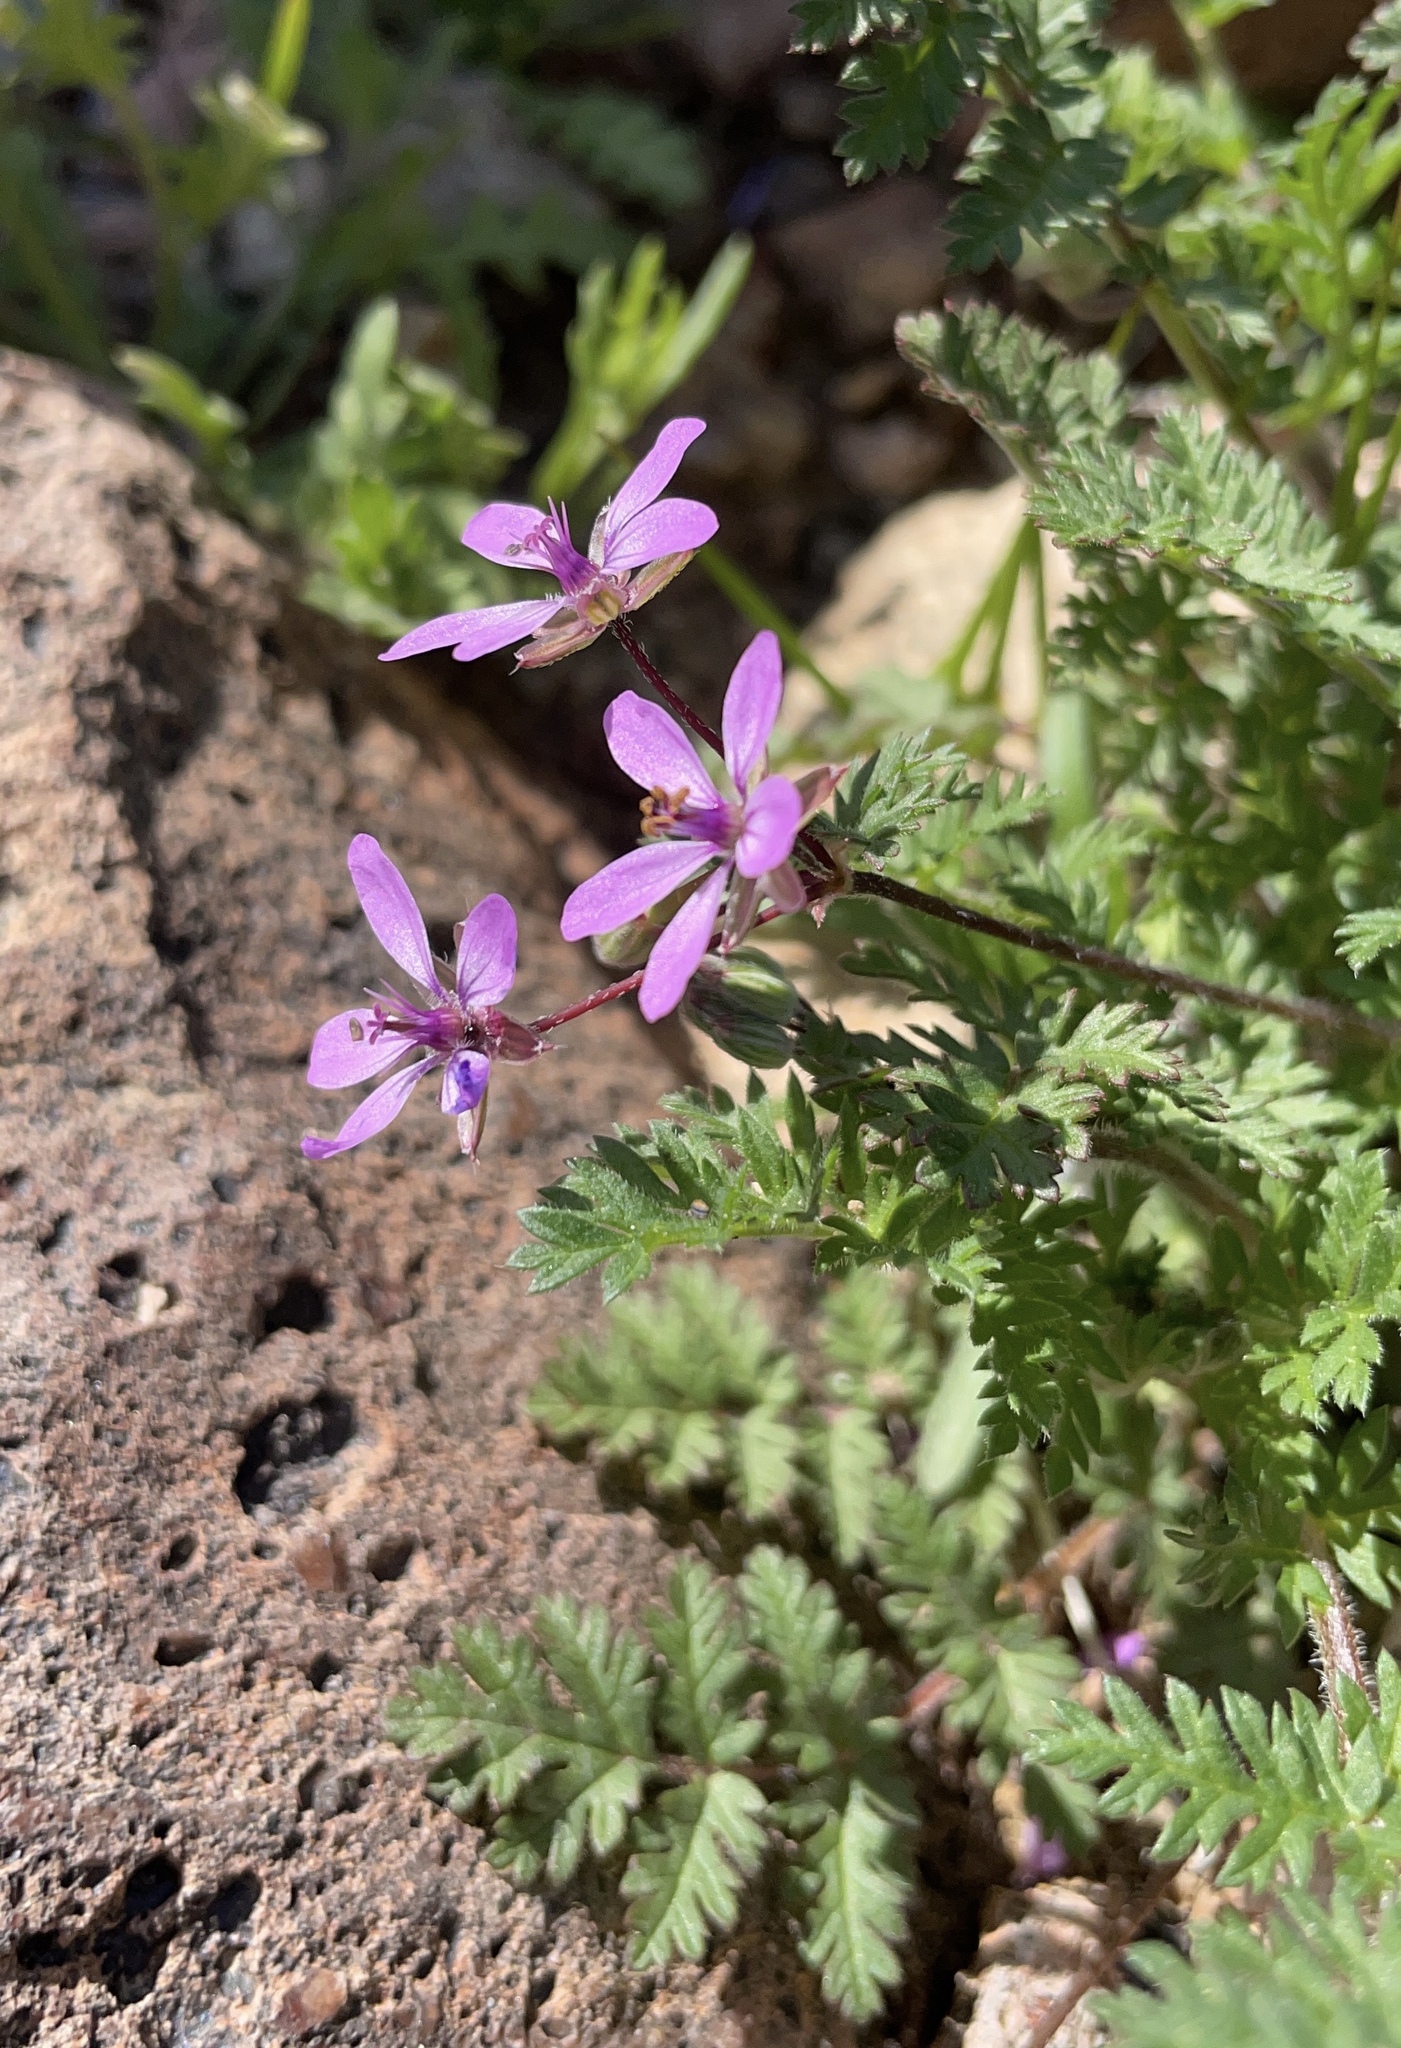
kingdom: Plantae
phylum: Tracheophyta
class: Magnoliopsida
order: Geraniales
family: Geraniaceae
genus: Erodium
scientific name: Erodium cicutarium
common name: Common stork's-bill
